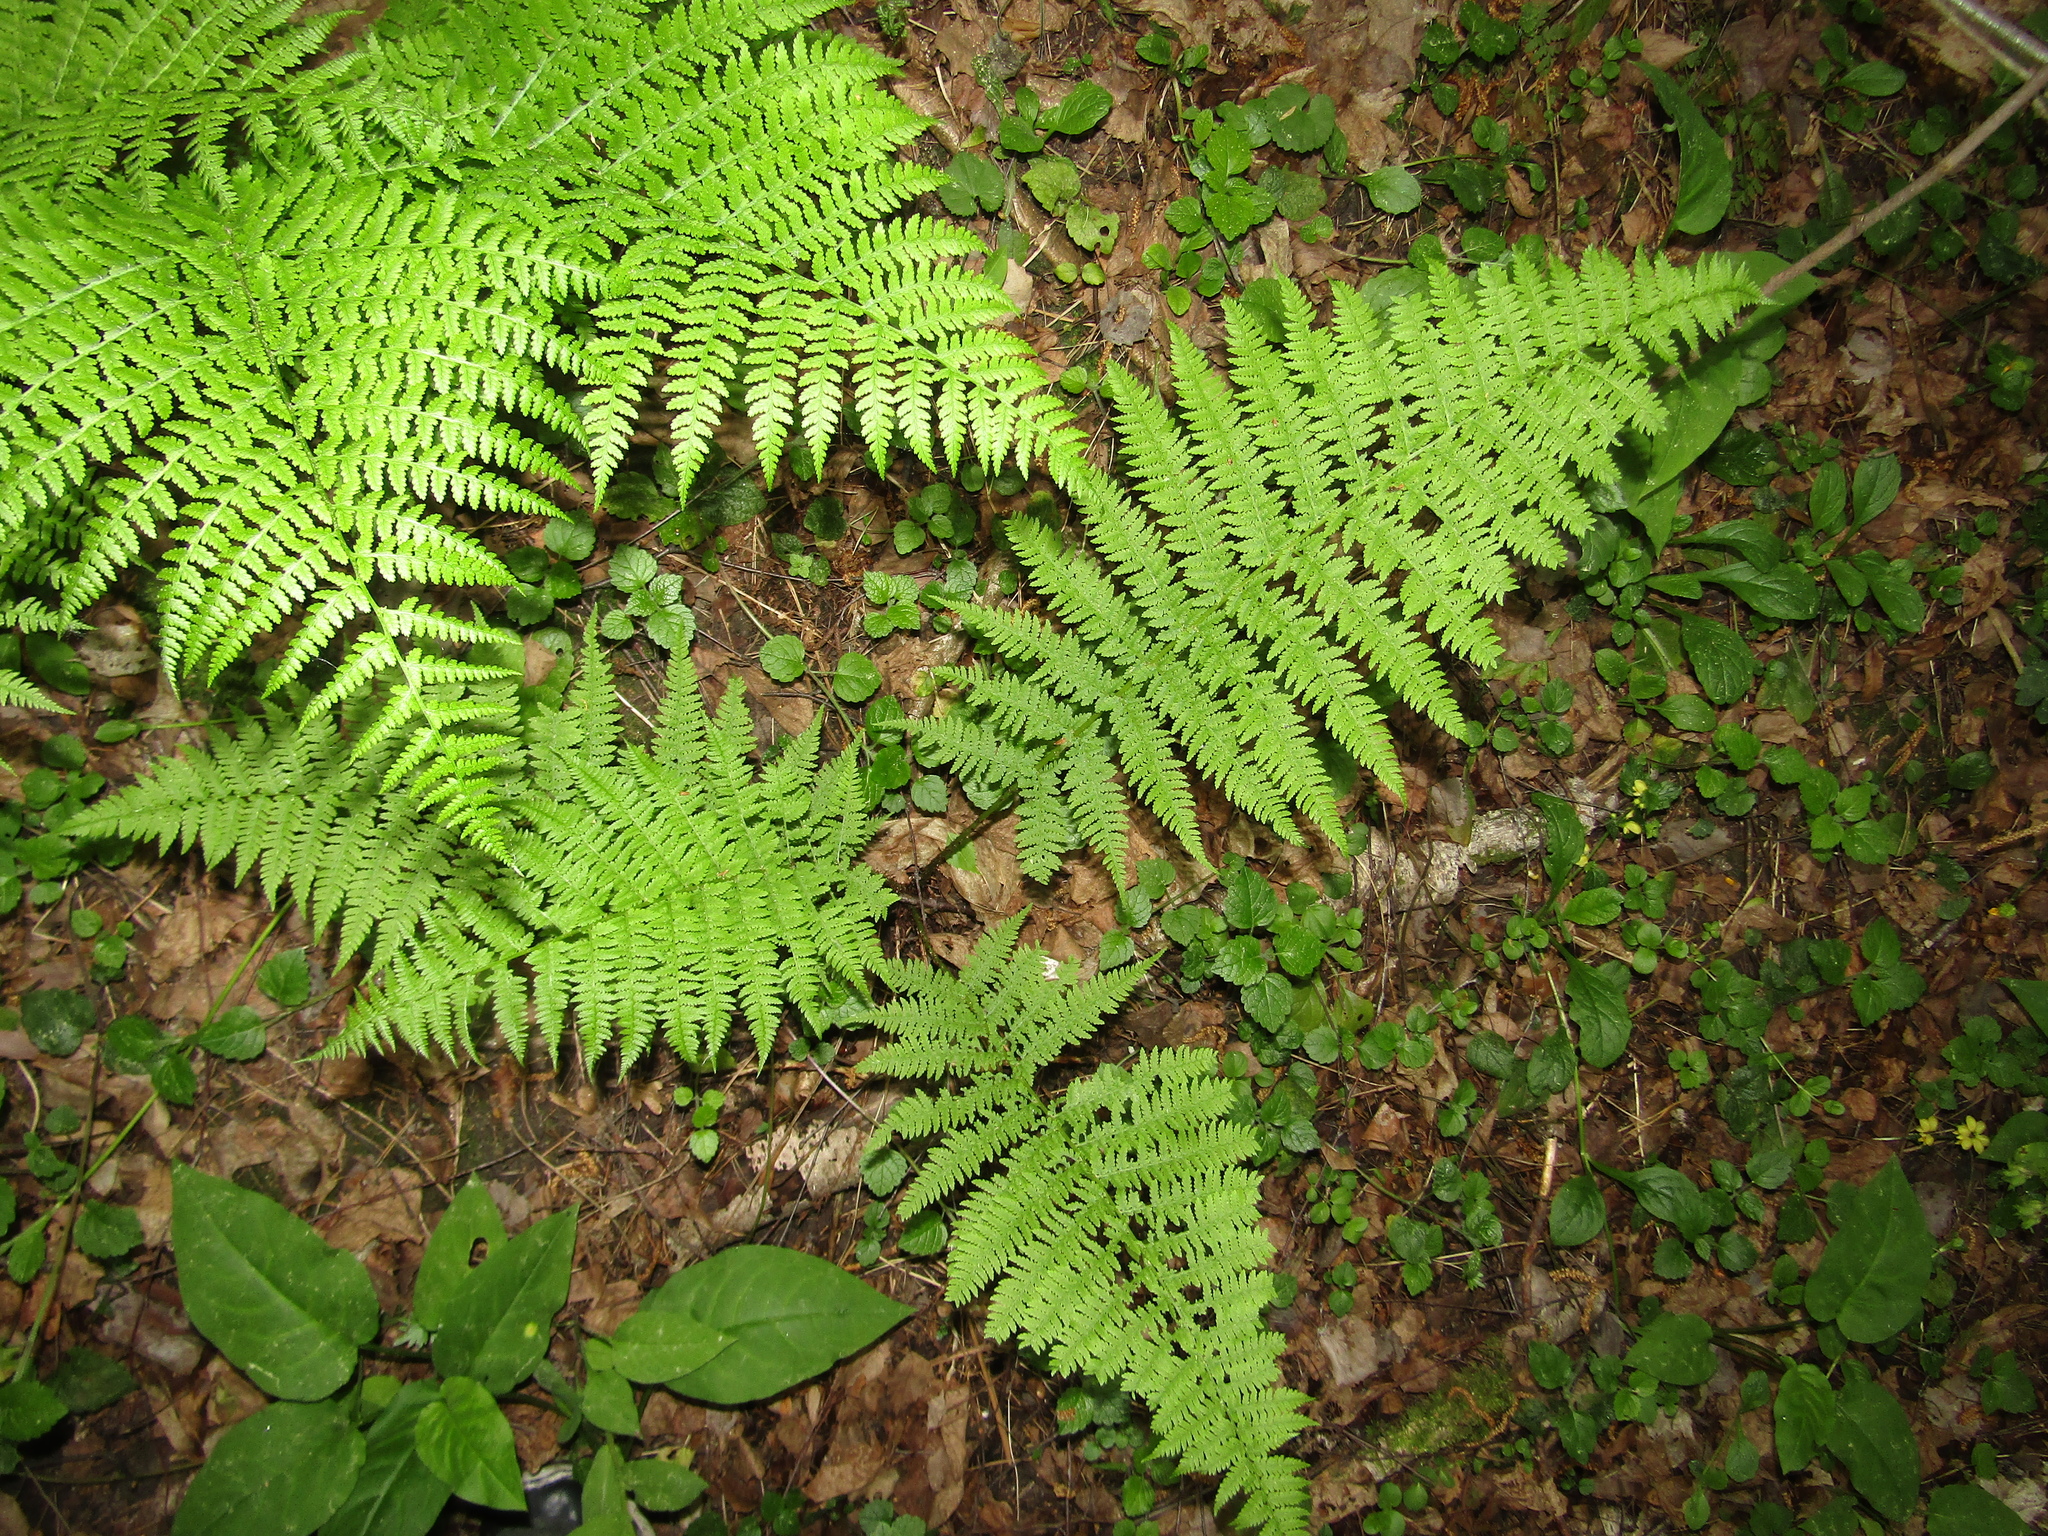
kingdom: Plantae
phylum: Tracheophyta
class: Polypodiopsida
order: Polypodiales
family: Athyriaceae
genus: Athyrium
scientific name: Athyrium filix-femina
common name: Lady fern
